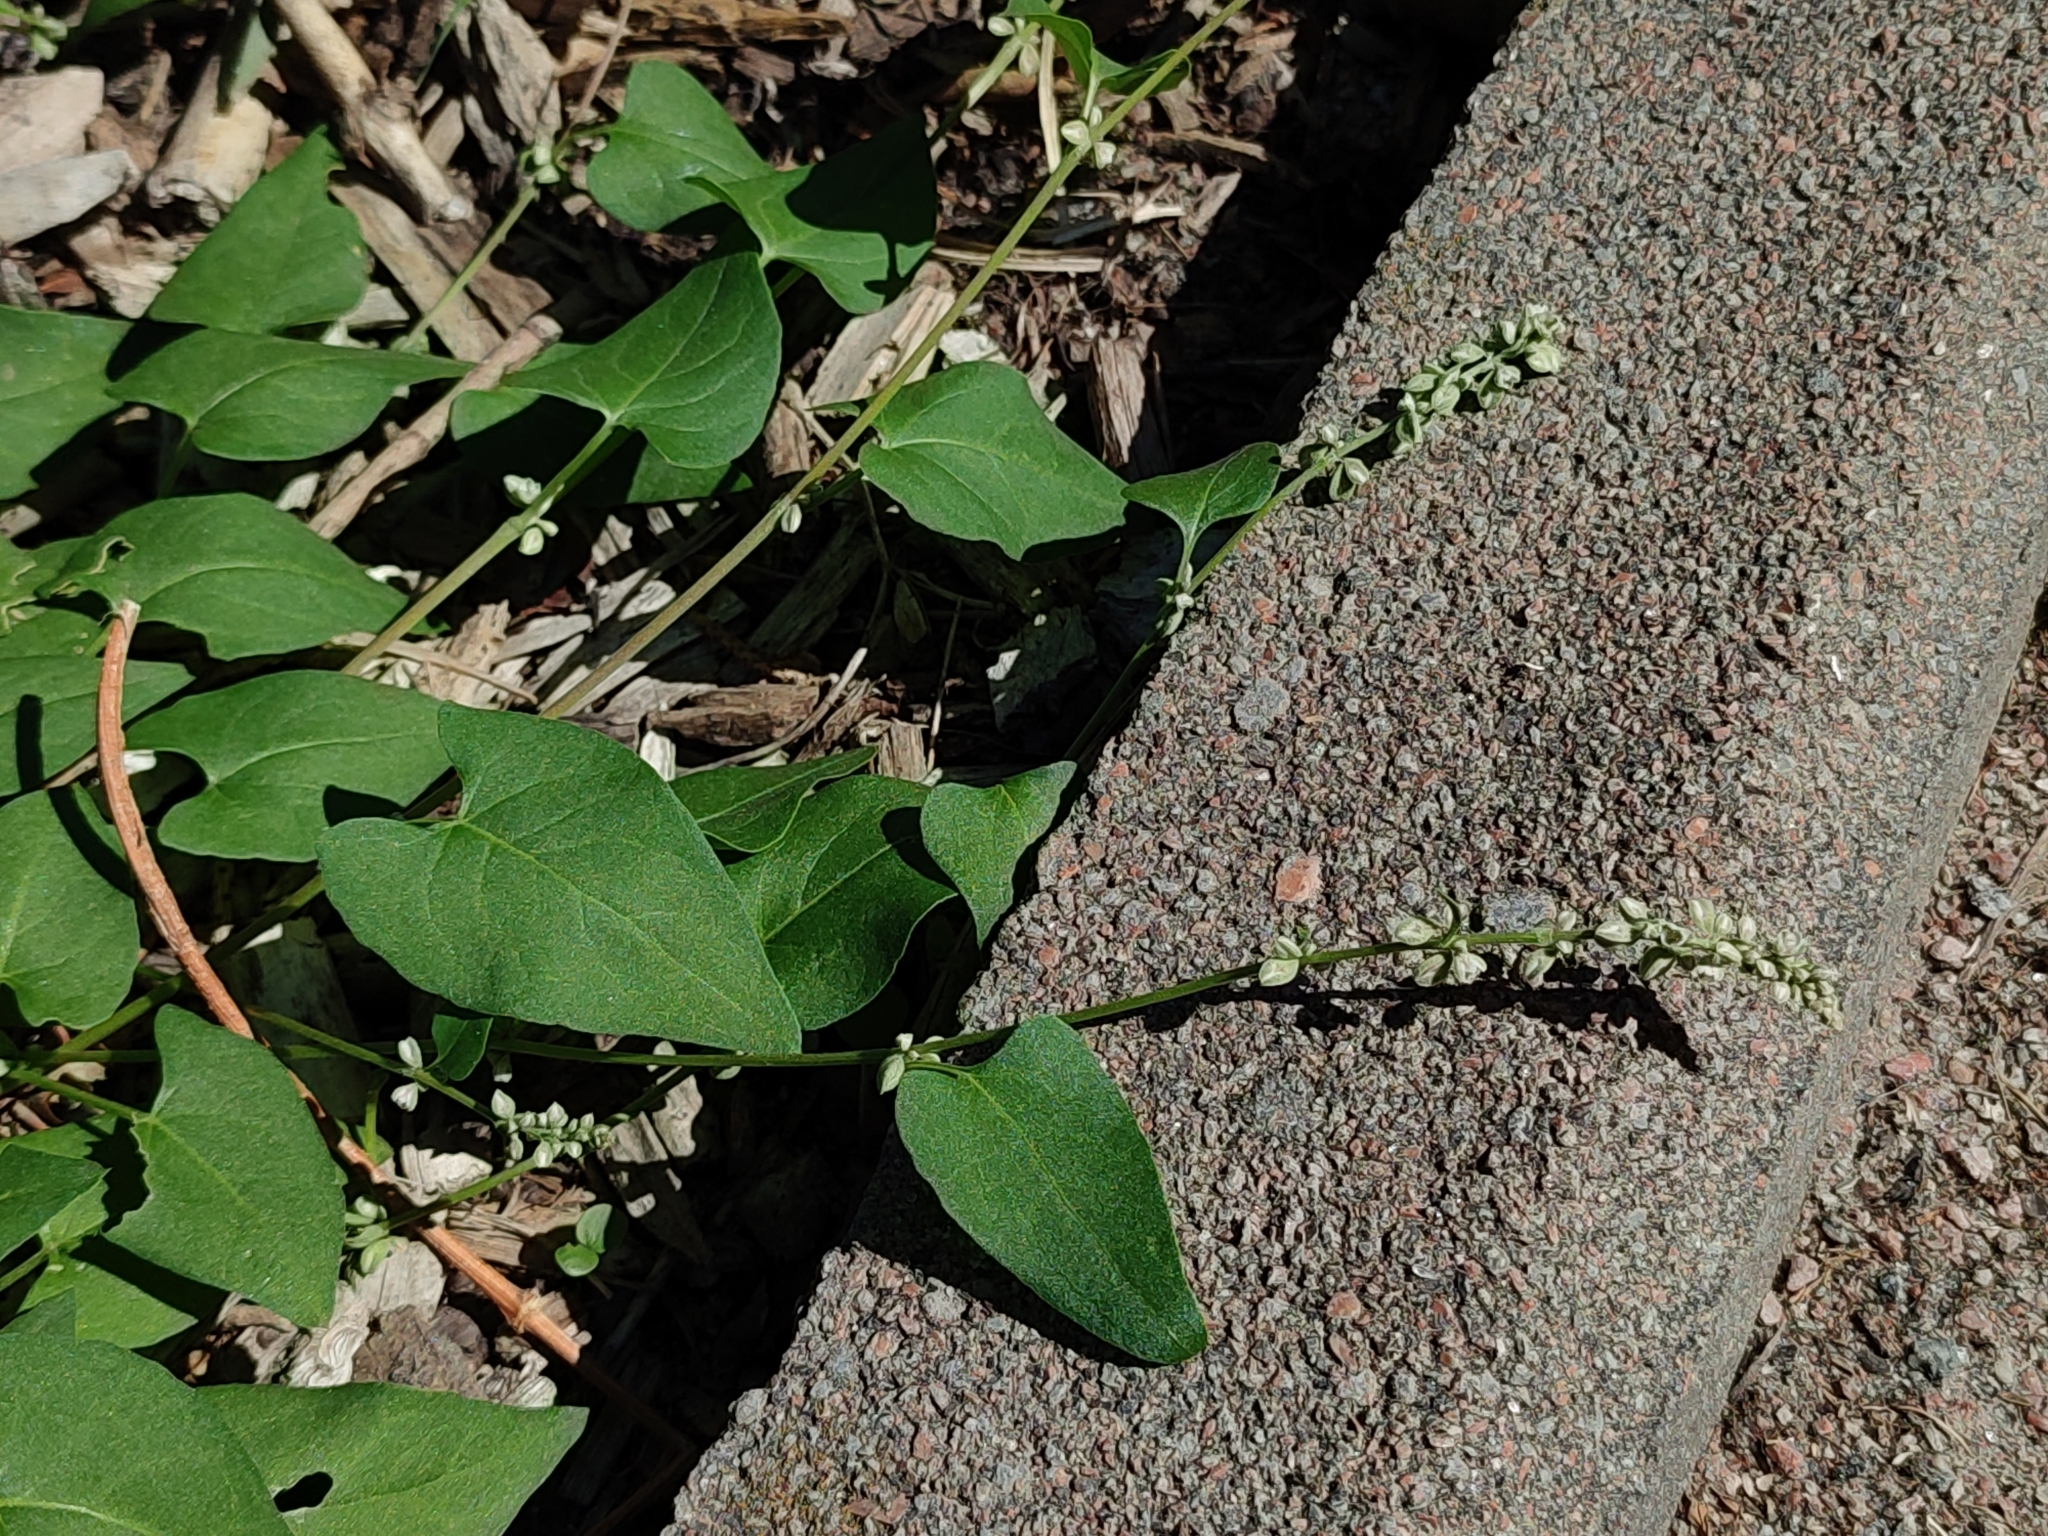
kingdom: Plantae
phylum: Tracheophyta
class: Magnoliopsida
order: Caryophyllales
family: Polygonaceae
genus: Fallopia
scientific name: Fallopia convolvulus
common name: Black bindweed
